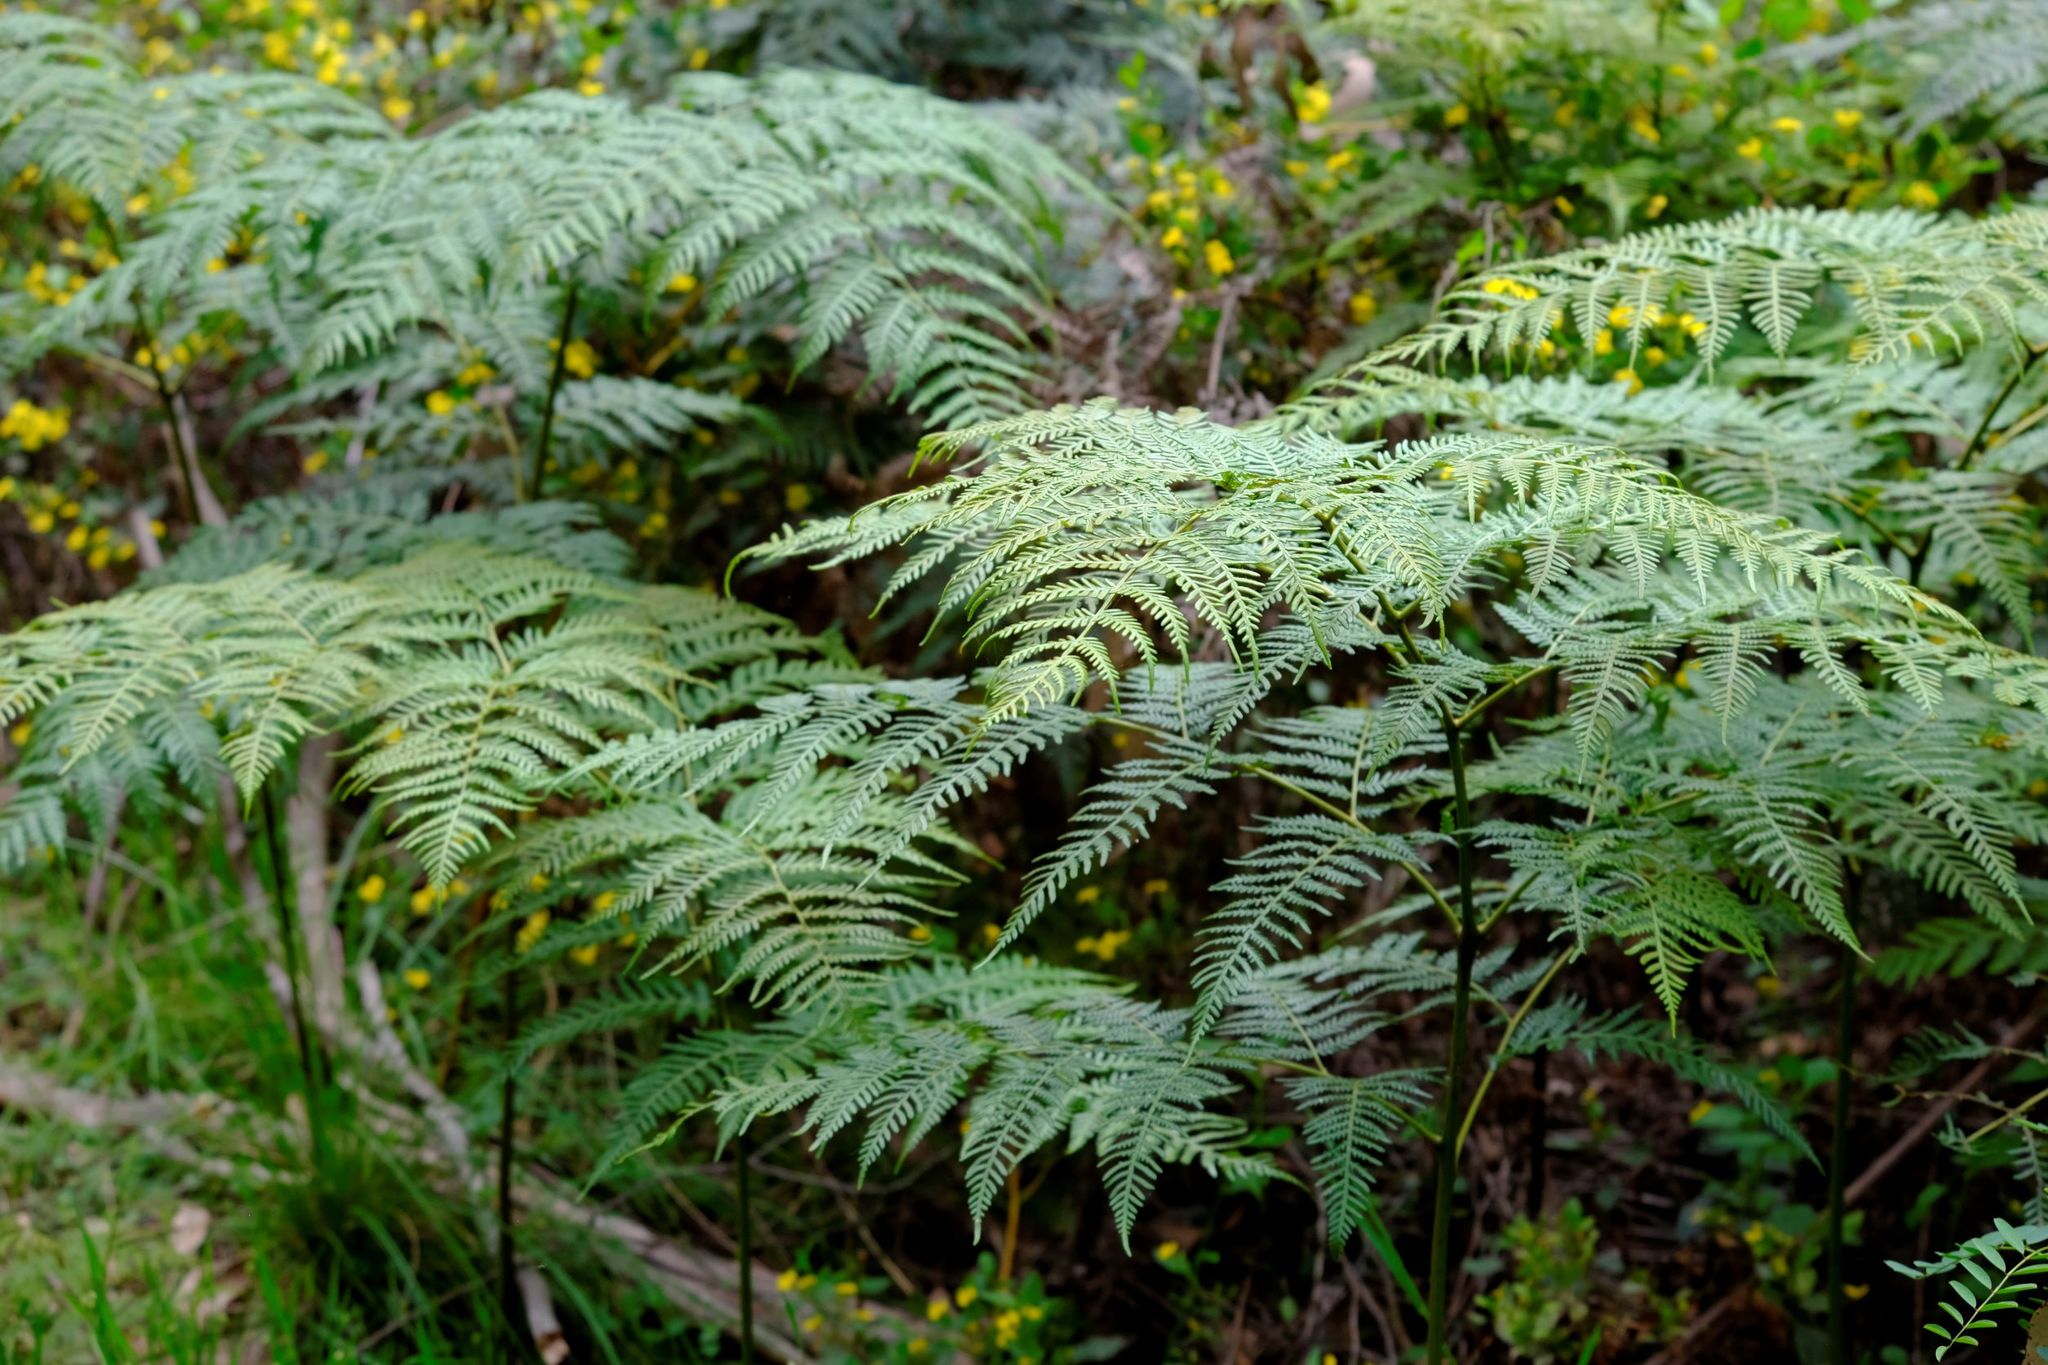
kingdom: Plantae
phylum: Tracheophyta
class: Polypodiopsida
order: Polypodiales
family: Dennstaedtiaceae
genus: Pteridium
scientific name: Pteridium esculentum
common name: Bracken fern
